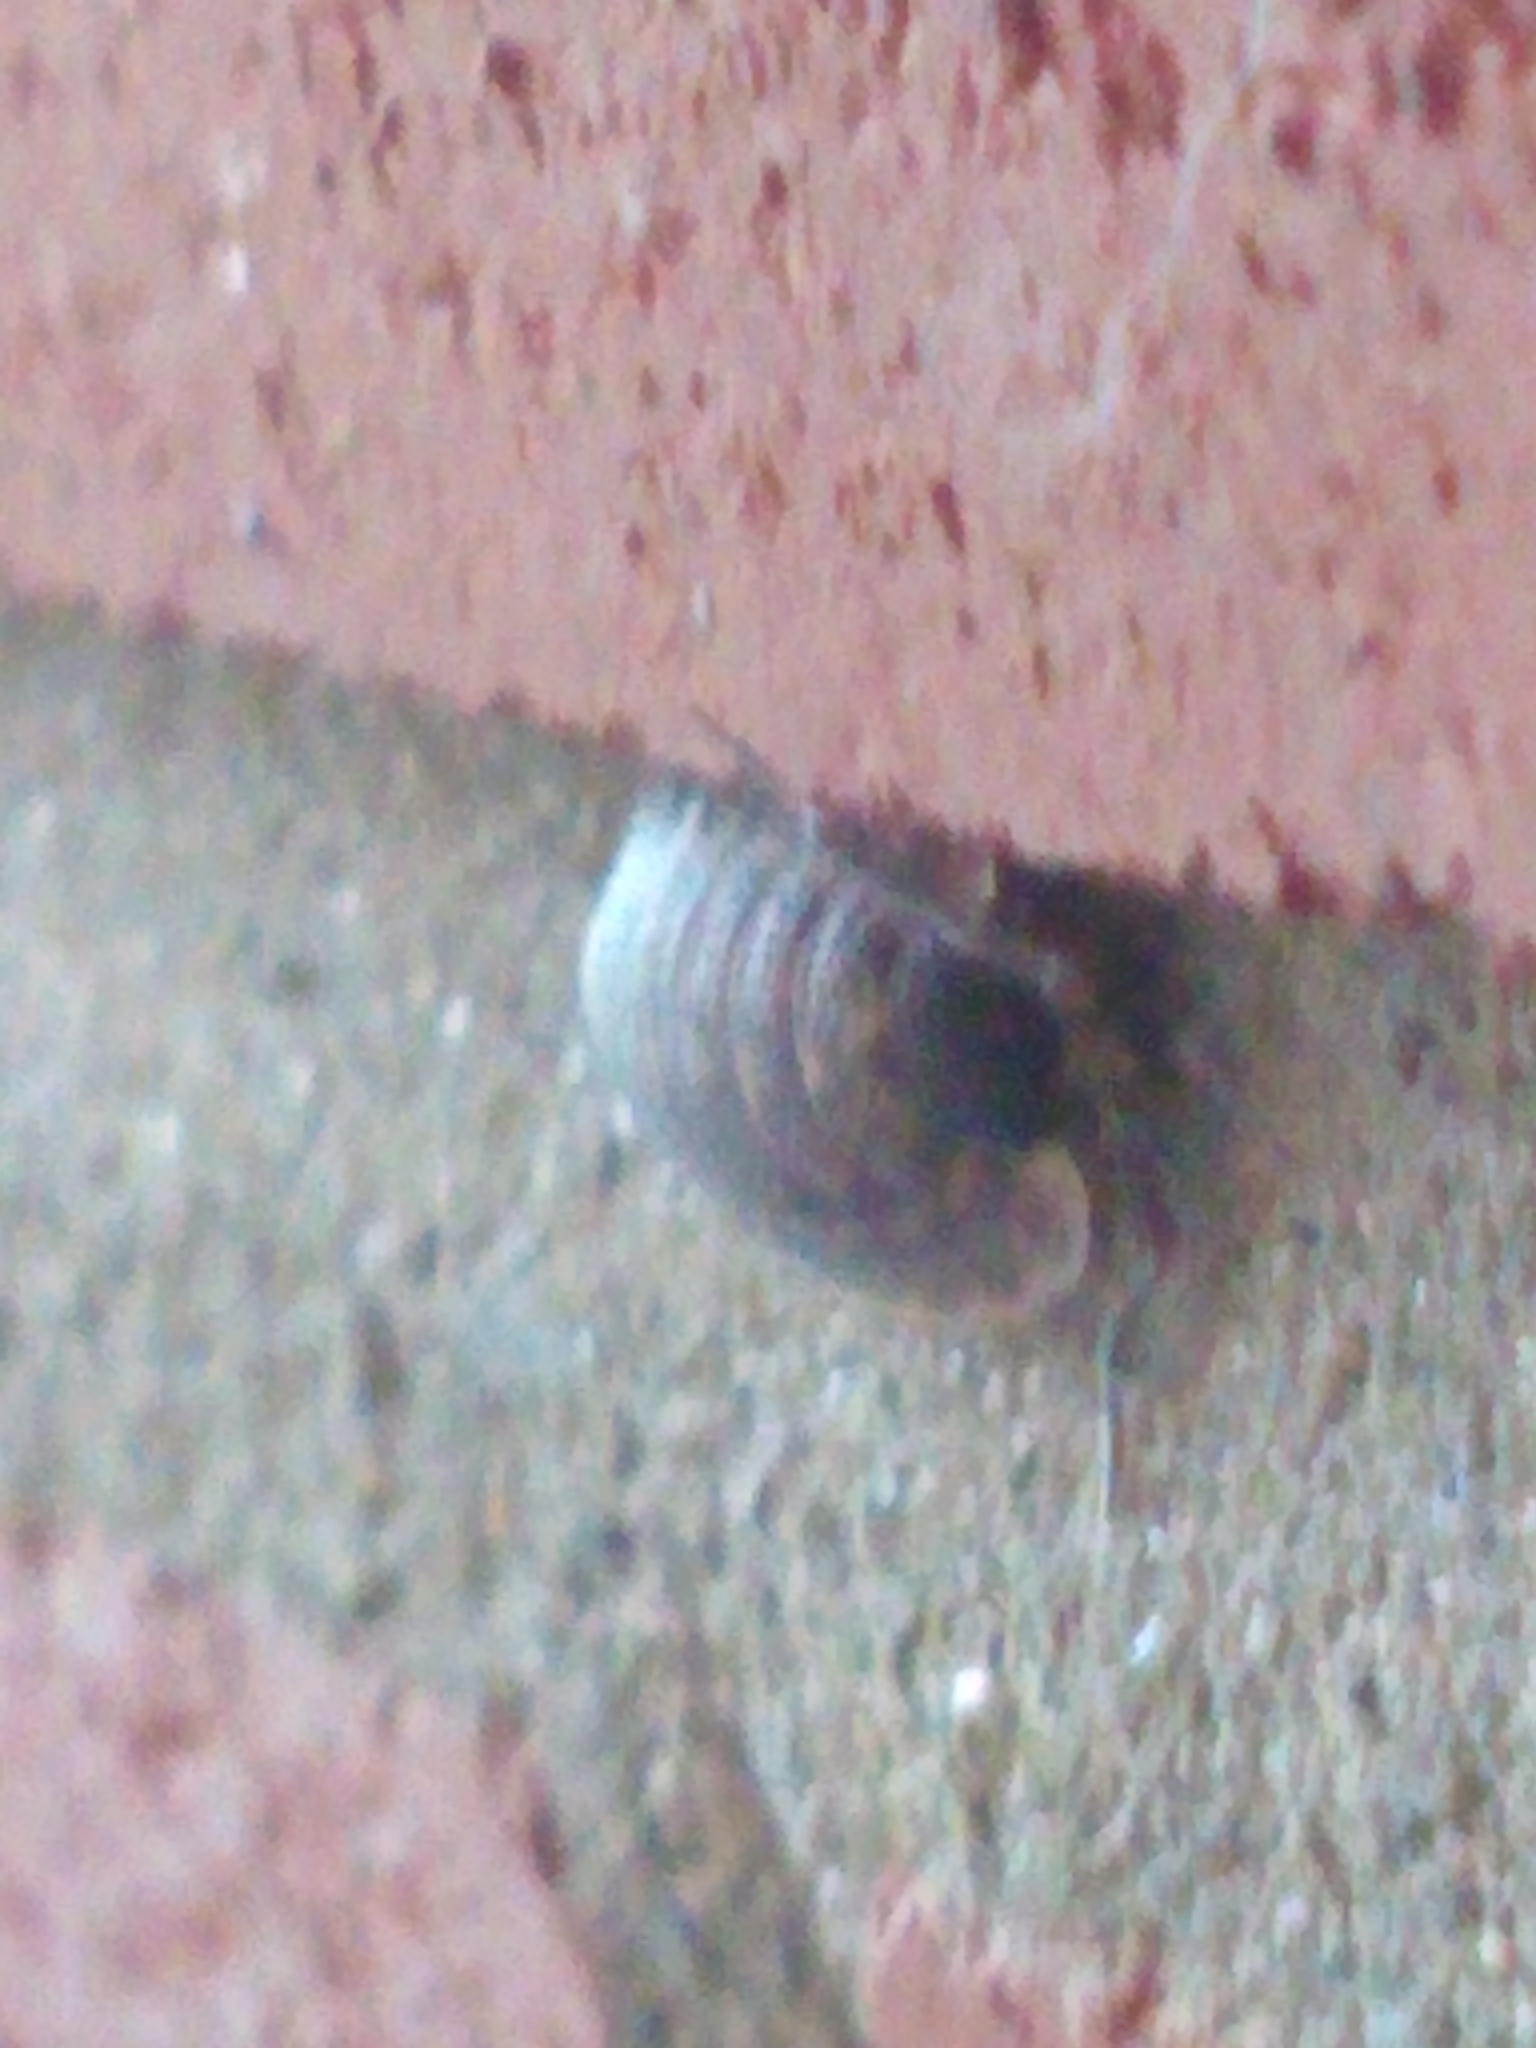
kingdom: Animalia
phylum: Arthropoda
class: Malacostraca
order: Isopoda
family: Porcellionidae
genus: Porcellio
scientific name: Porcellio spinicornis
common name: Painted woodlouse
